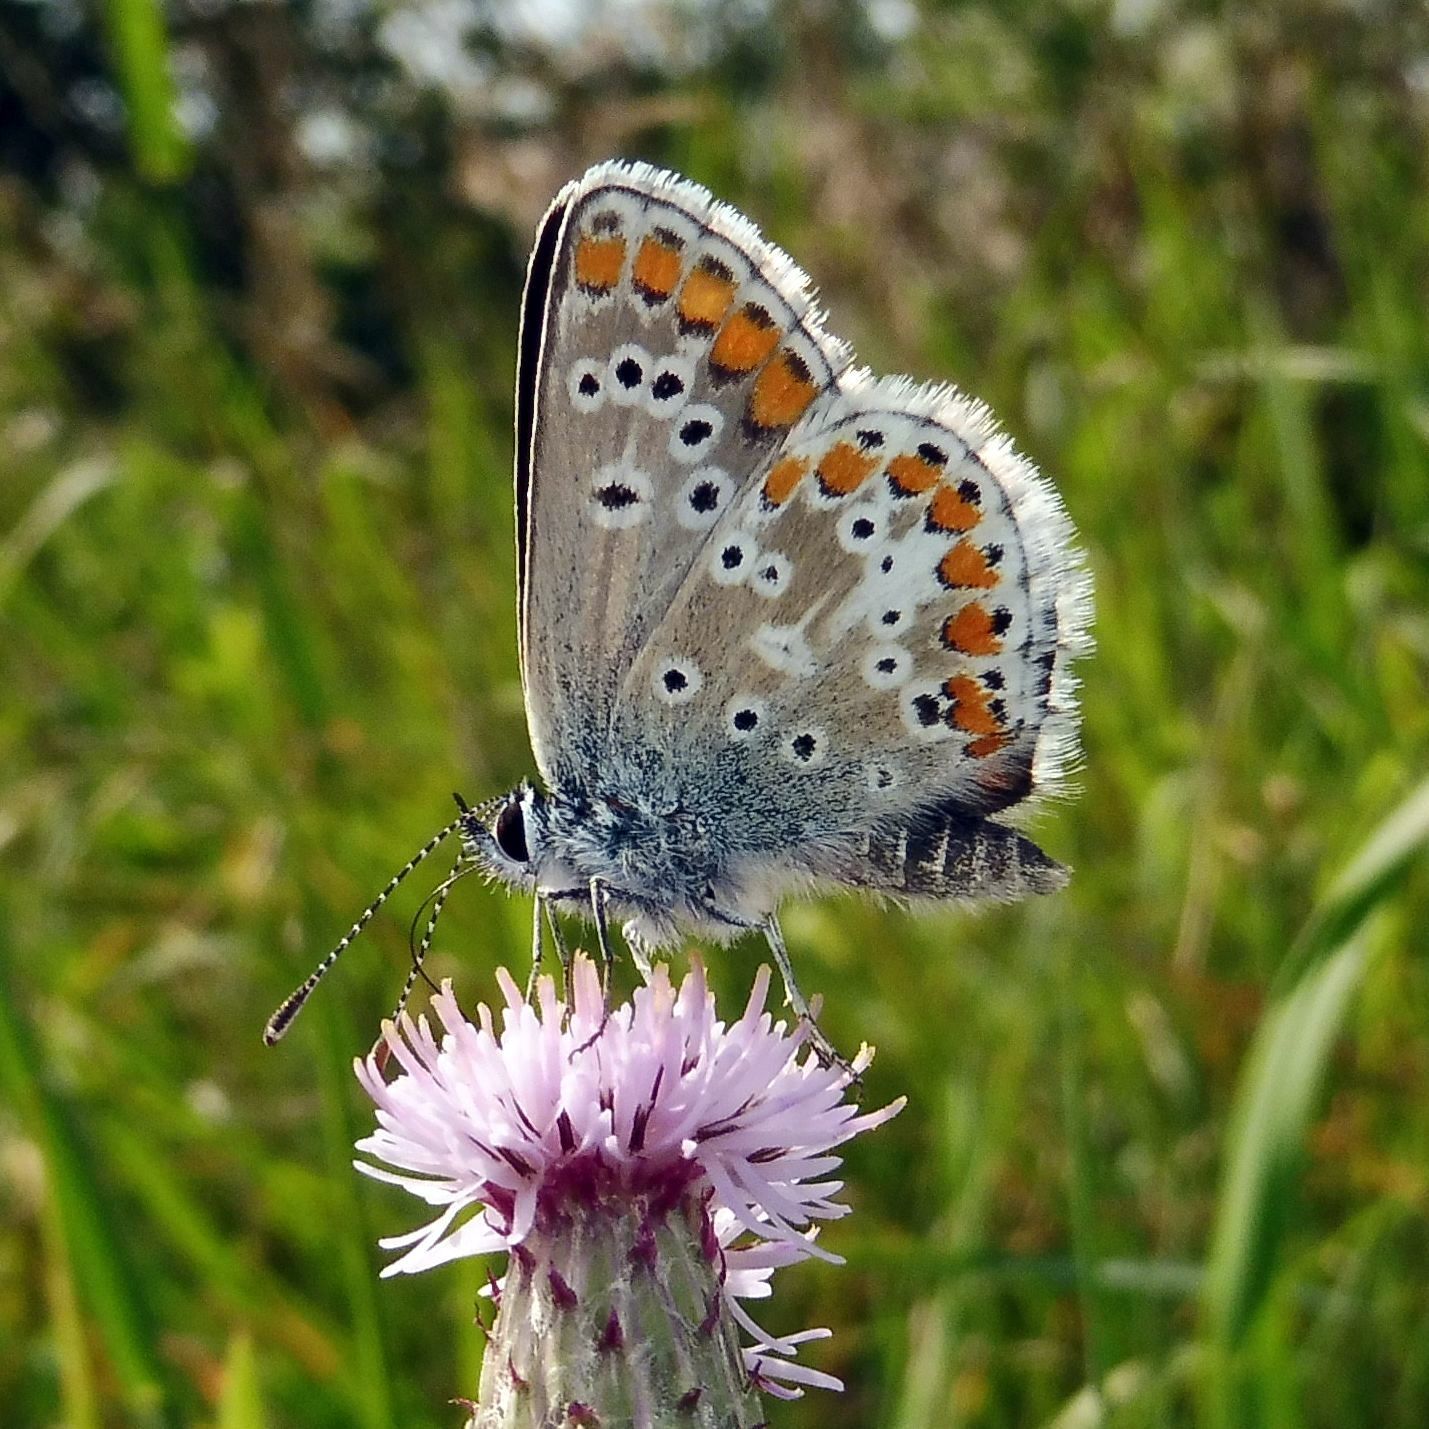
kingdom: Animalia
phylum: Arthropoda
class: Insecta
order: Lepidoptera
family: Lycaenidae
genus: Aricia
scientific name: Aricia agestis
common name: Brown argus
